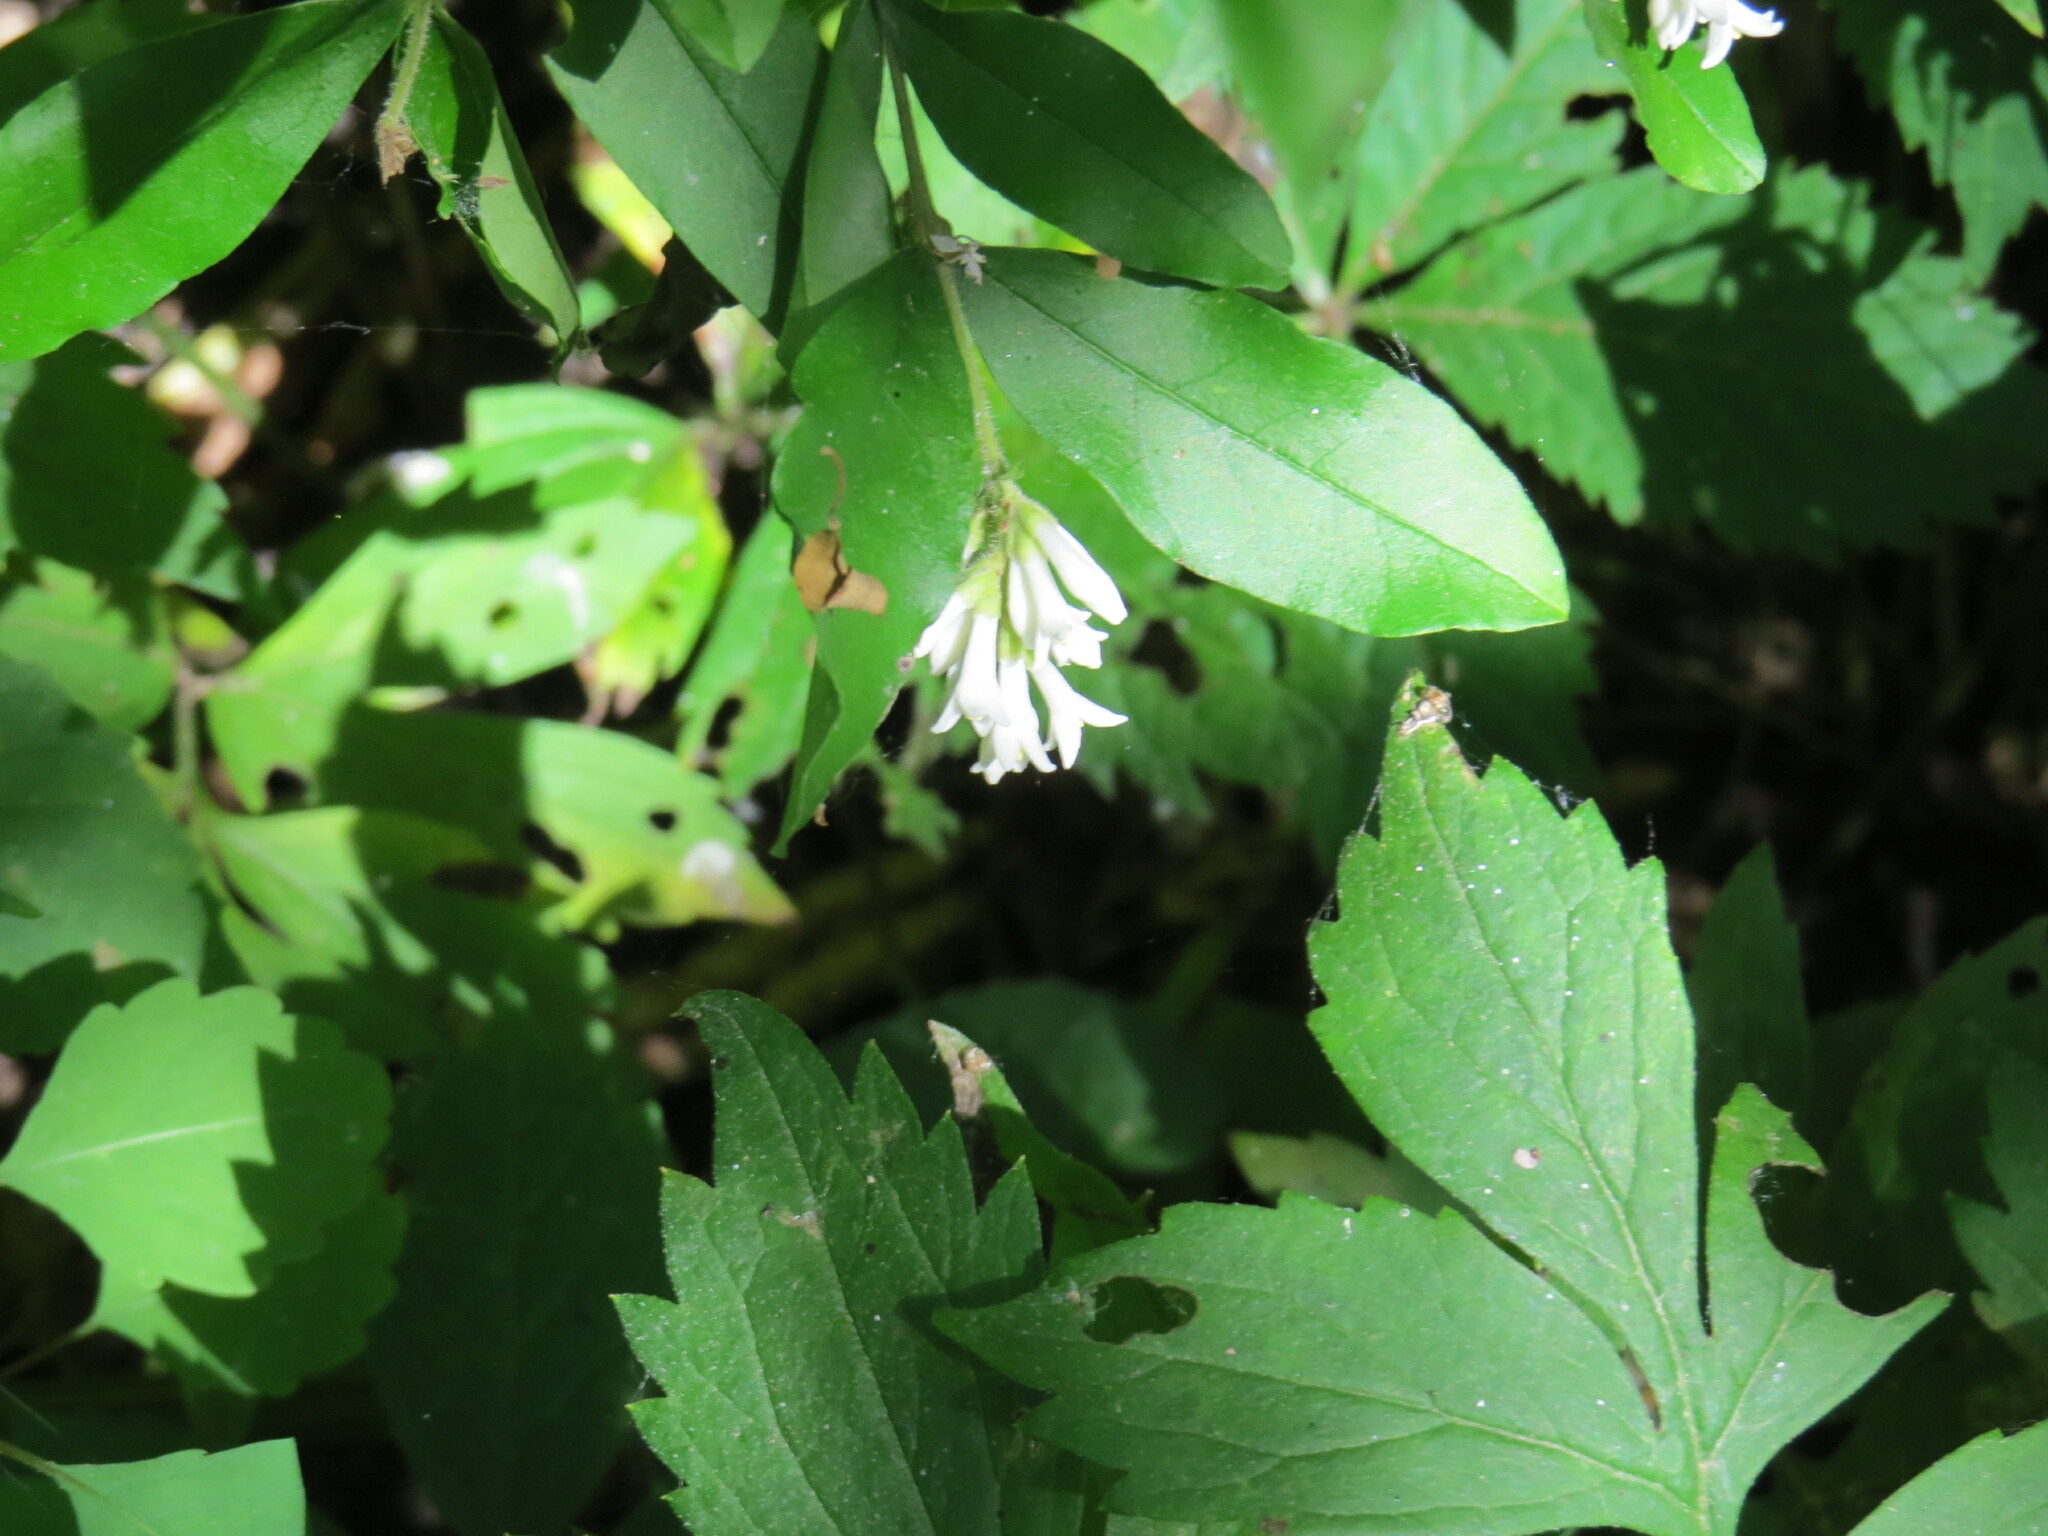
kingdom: Plantae
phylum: Tracheophyta
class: Magnoliopsida
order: Lamiales
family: Oleaceae
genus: Ligustrum
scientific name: Ligustrum obtusifolium
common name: Border privet
